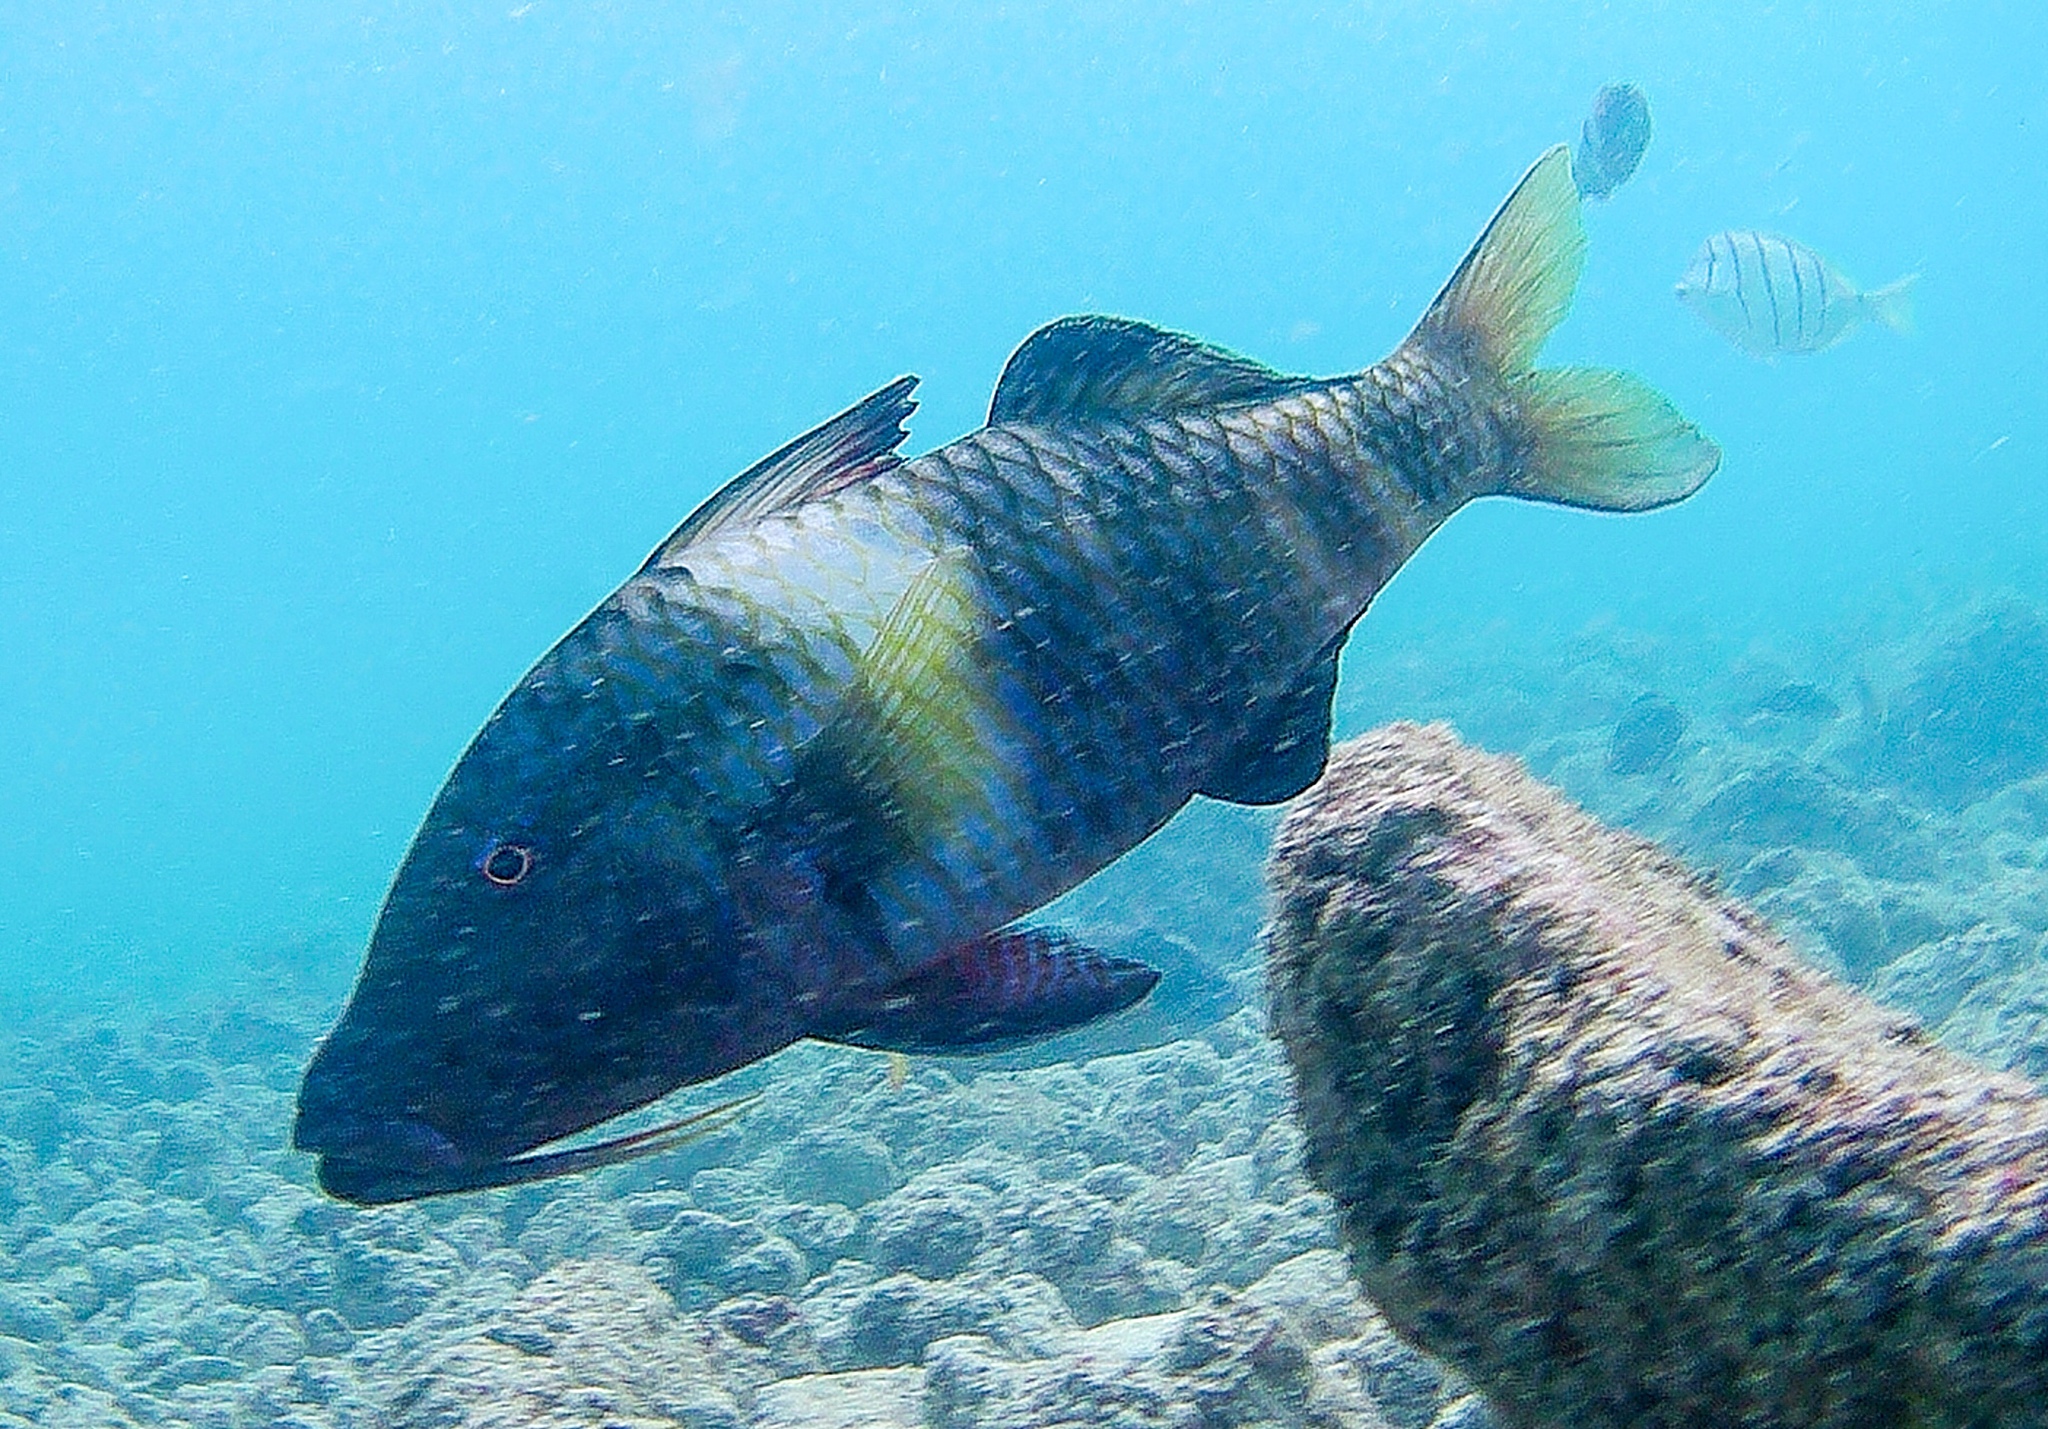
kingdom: Animalia
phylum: Chordata
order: Perciformes
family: Mullidae
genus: Parupeneus
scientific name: Parupeneus multifasciatus
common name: Manybar goatfish
